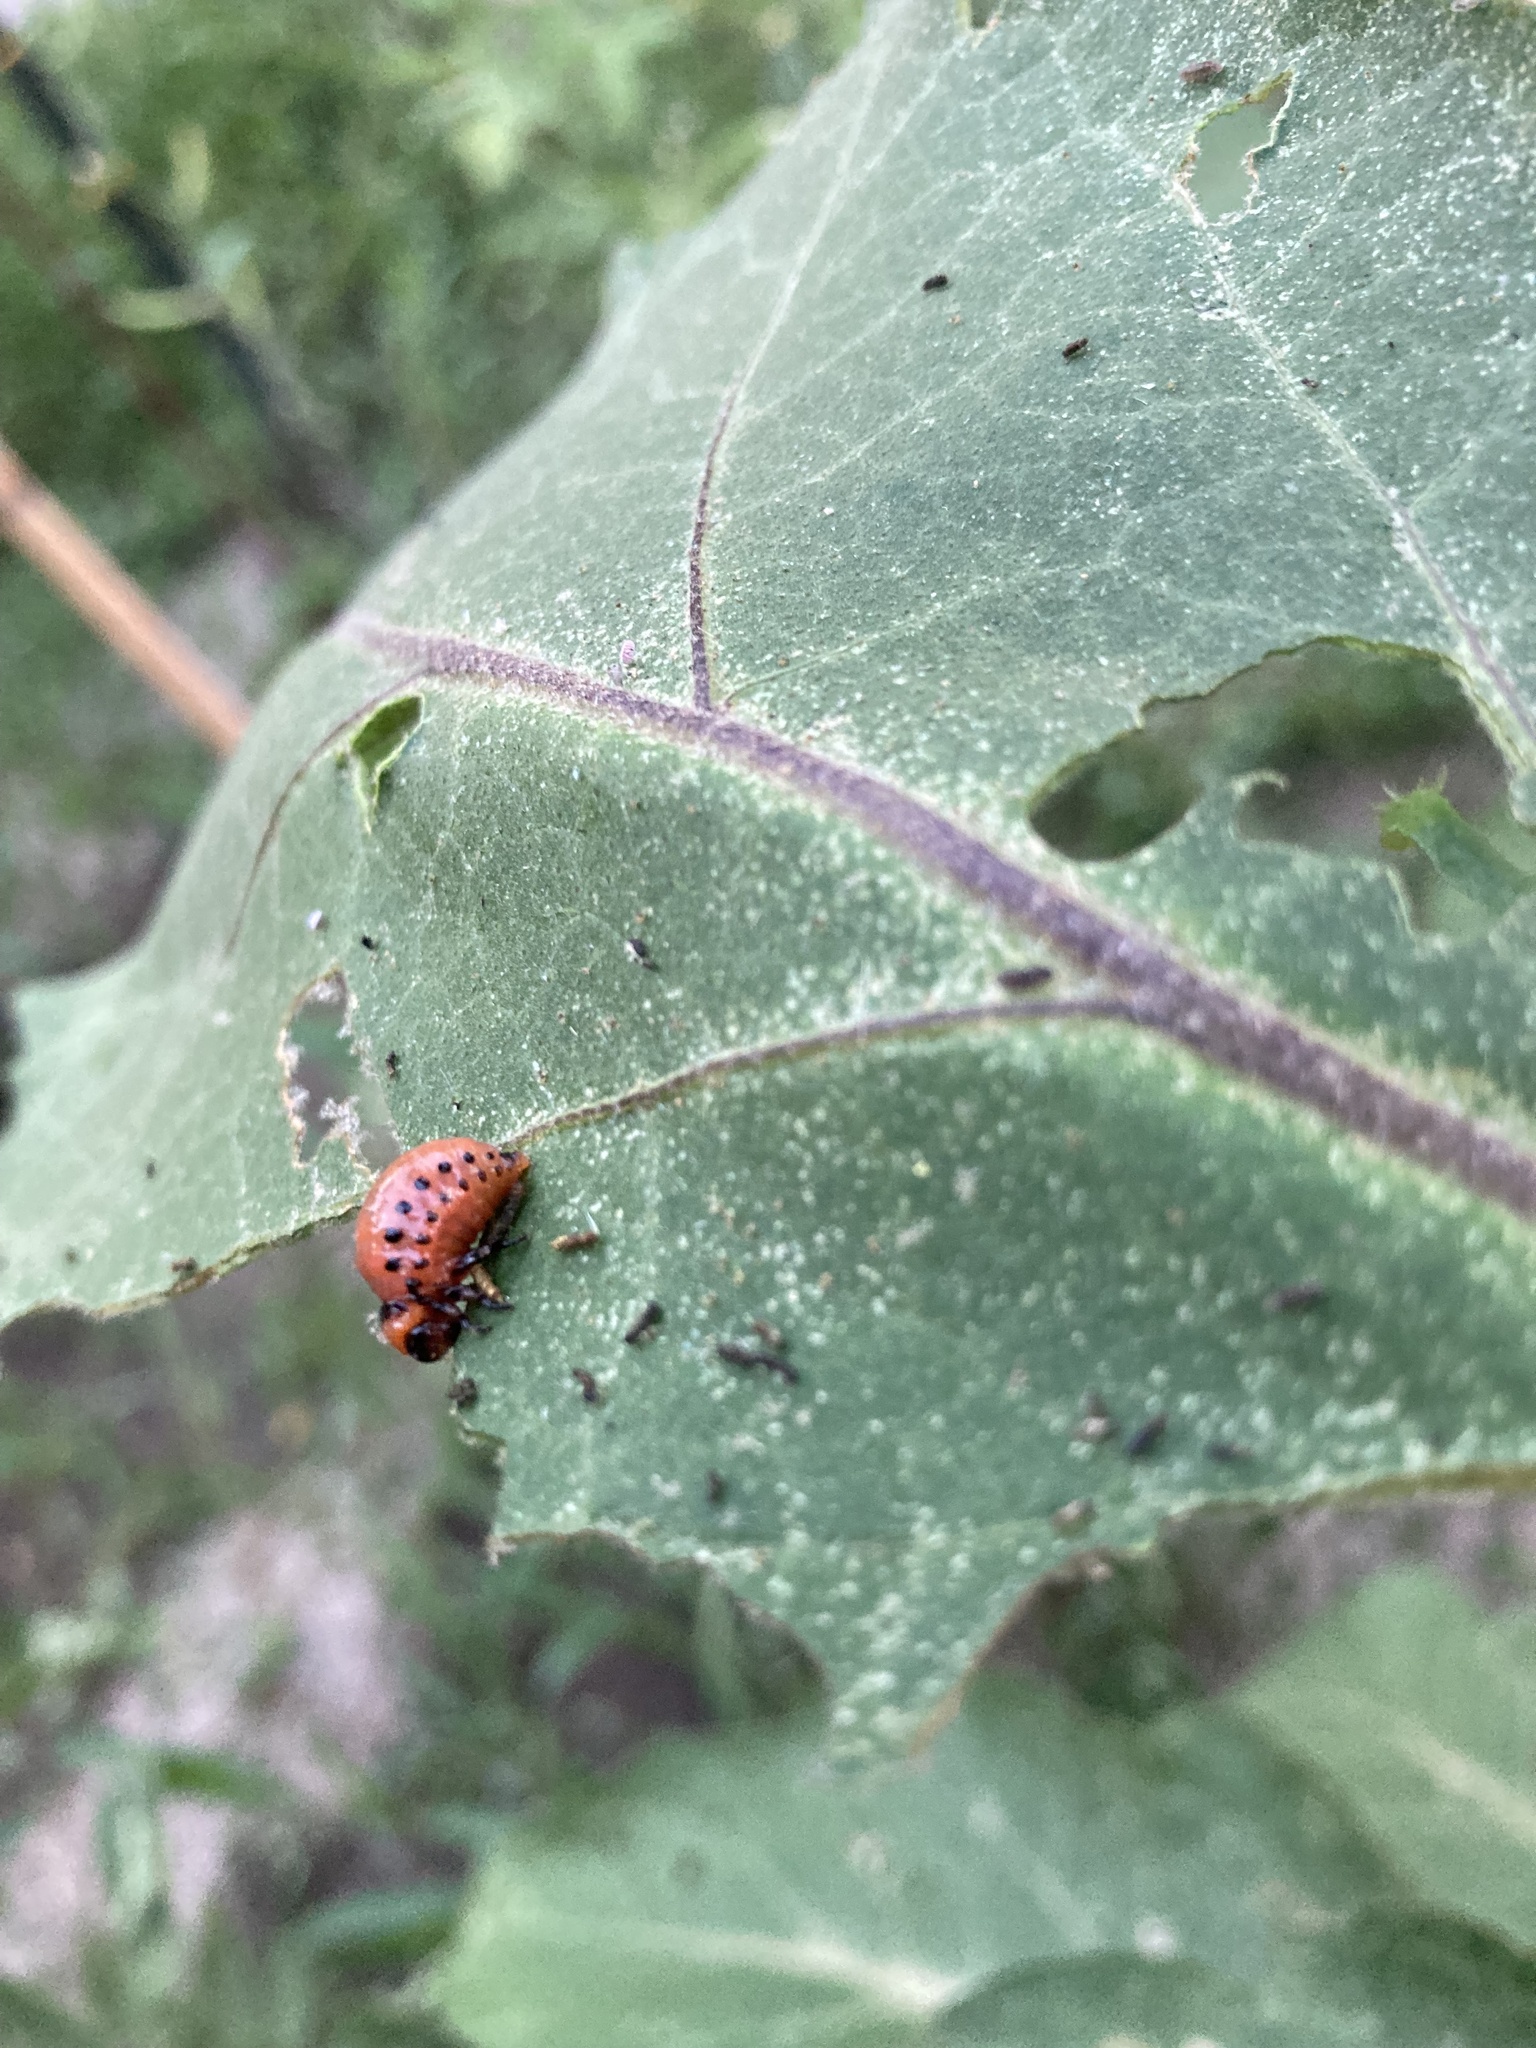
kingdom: Animalia
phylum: Arthropoda
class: Insecta
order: Coleoptera
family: Chrysomelidae
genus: Leptinotarsa
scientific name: Leptinotarsa decemlineata
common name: Colorado potato beetle
